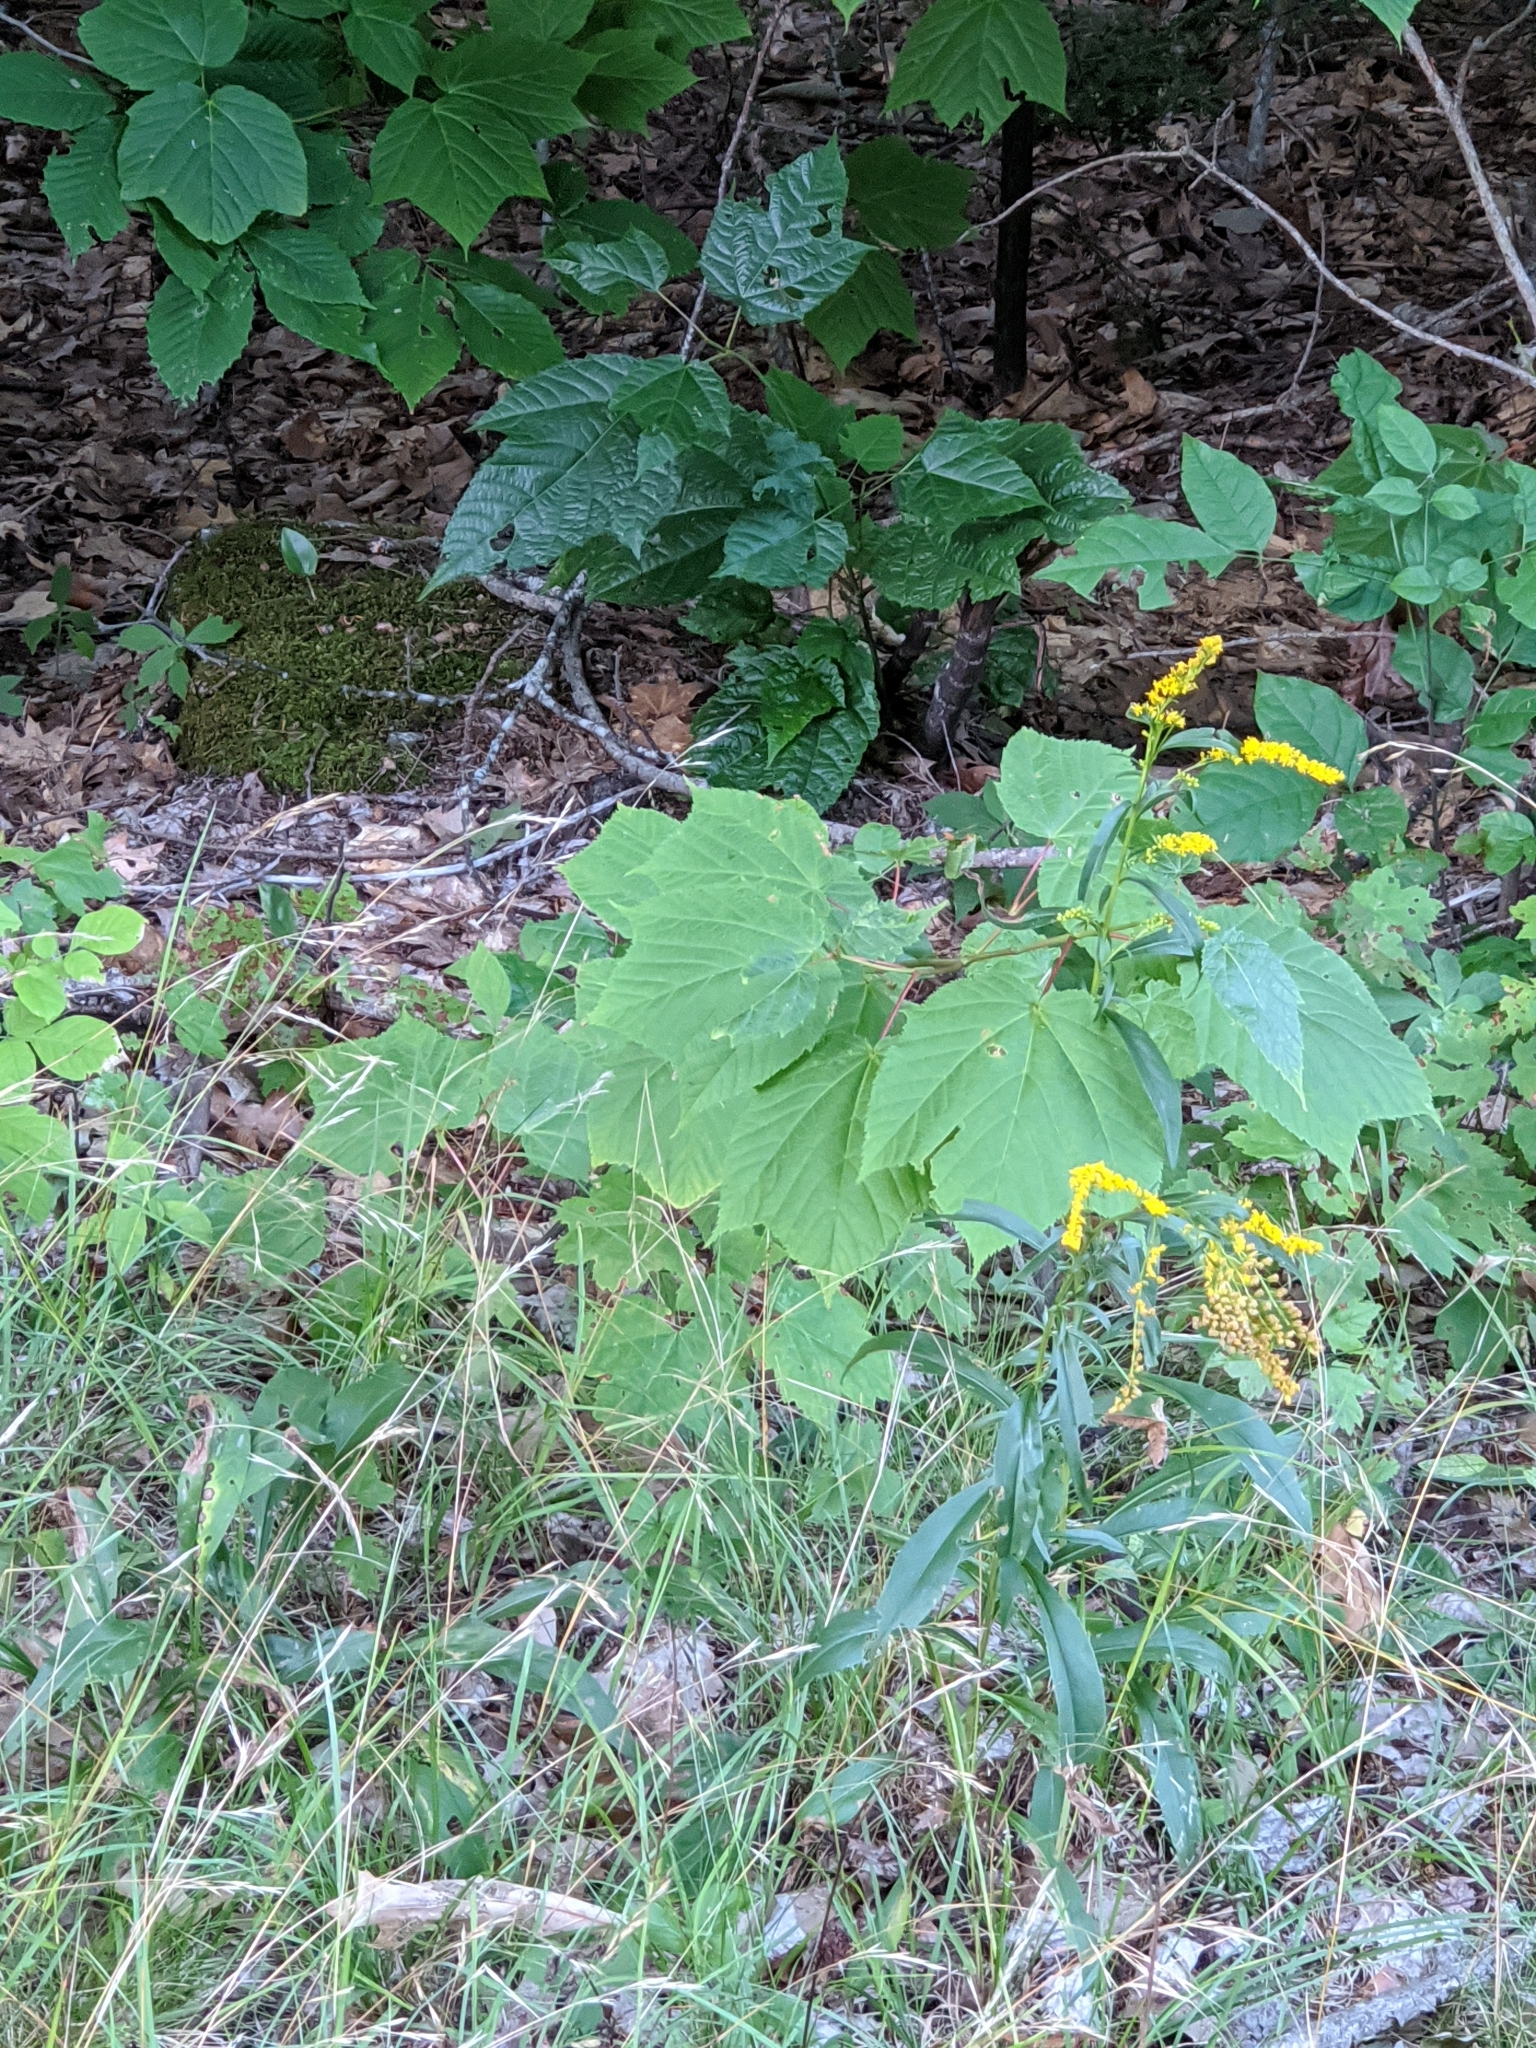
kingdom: Plantae
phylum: Tracheophyta
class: Magnoliopsida
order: Sapindales
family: Sapindaceae
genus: Acer
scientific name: Acer pensylvanicum
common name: Moosewood
